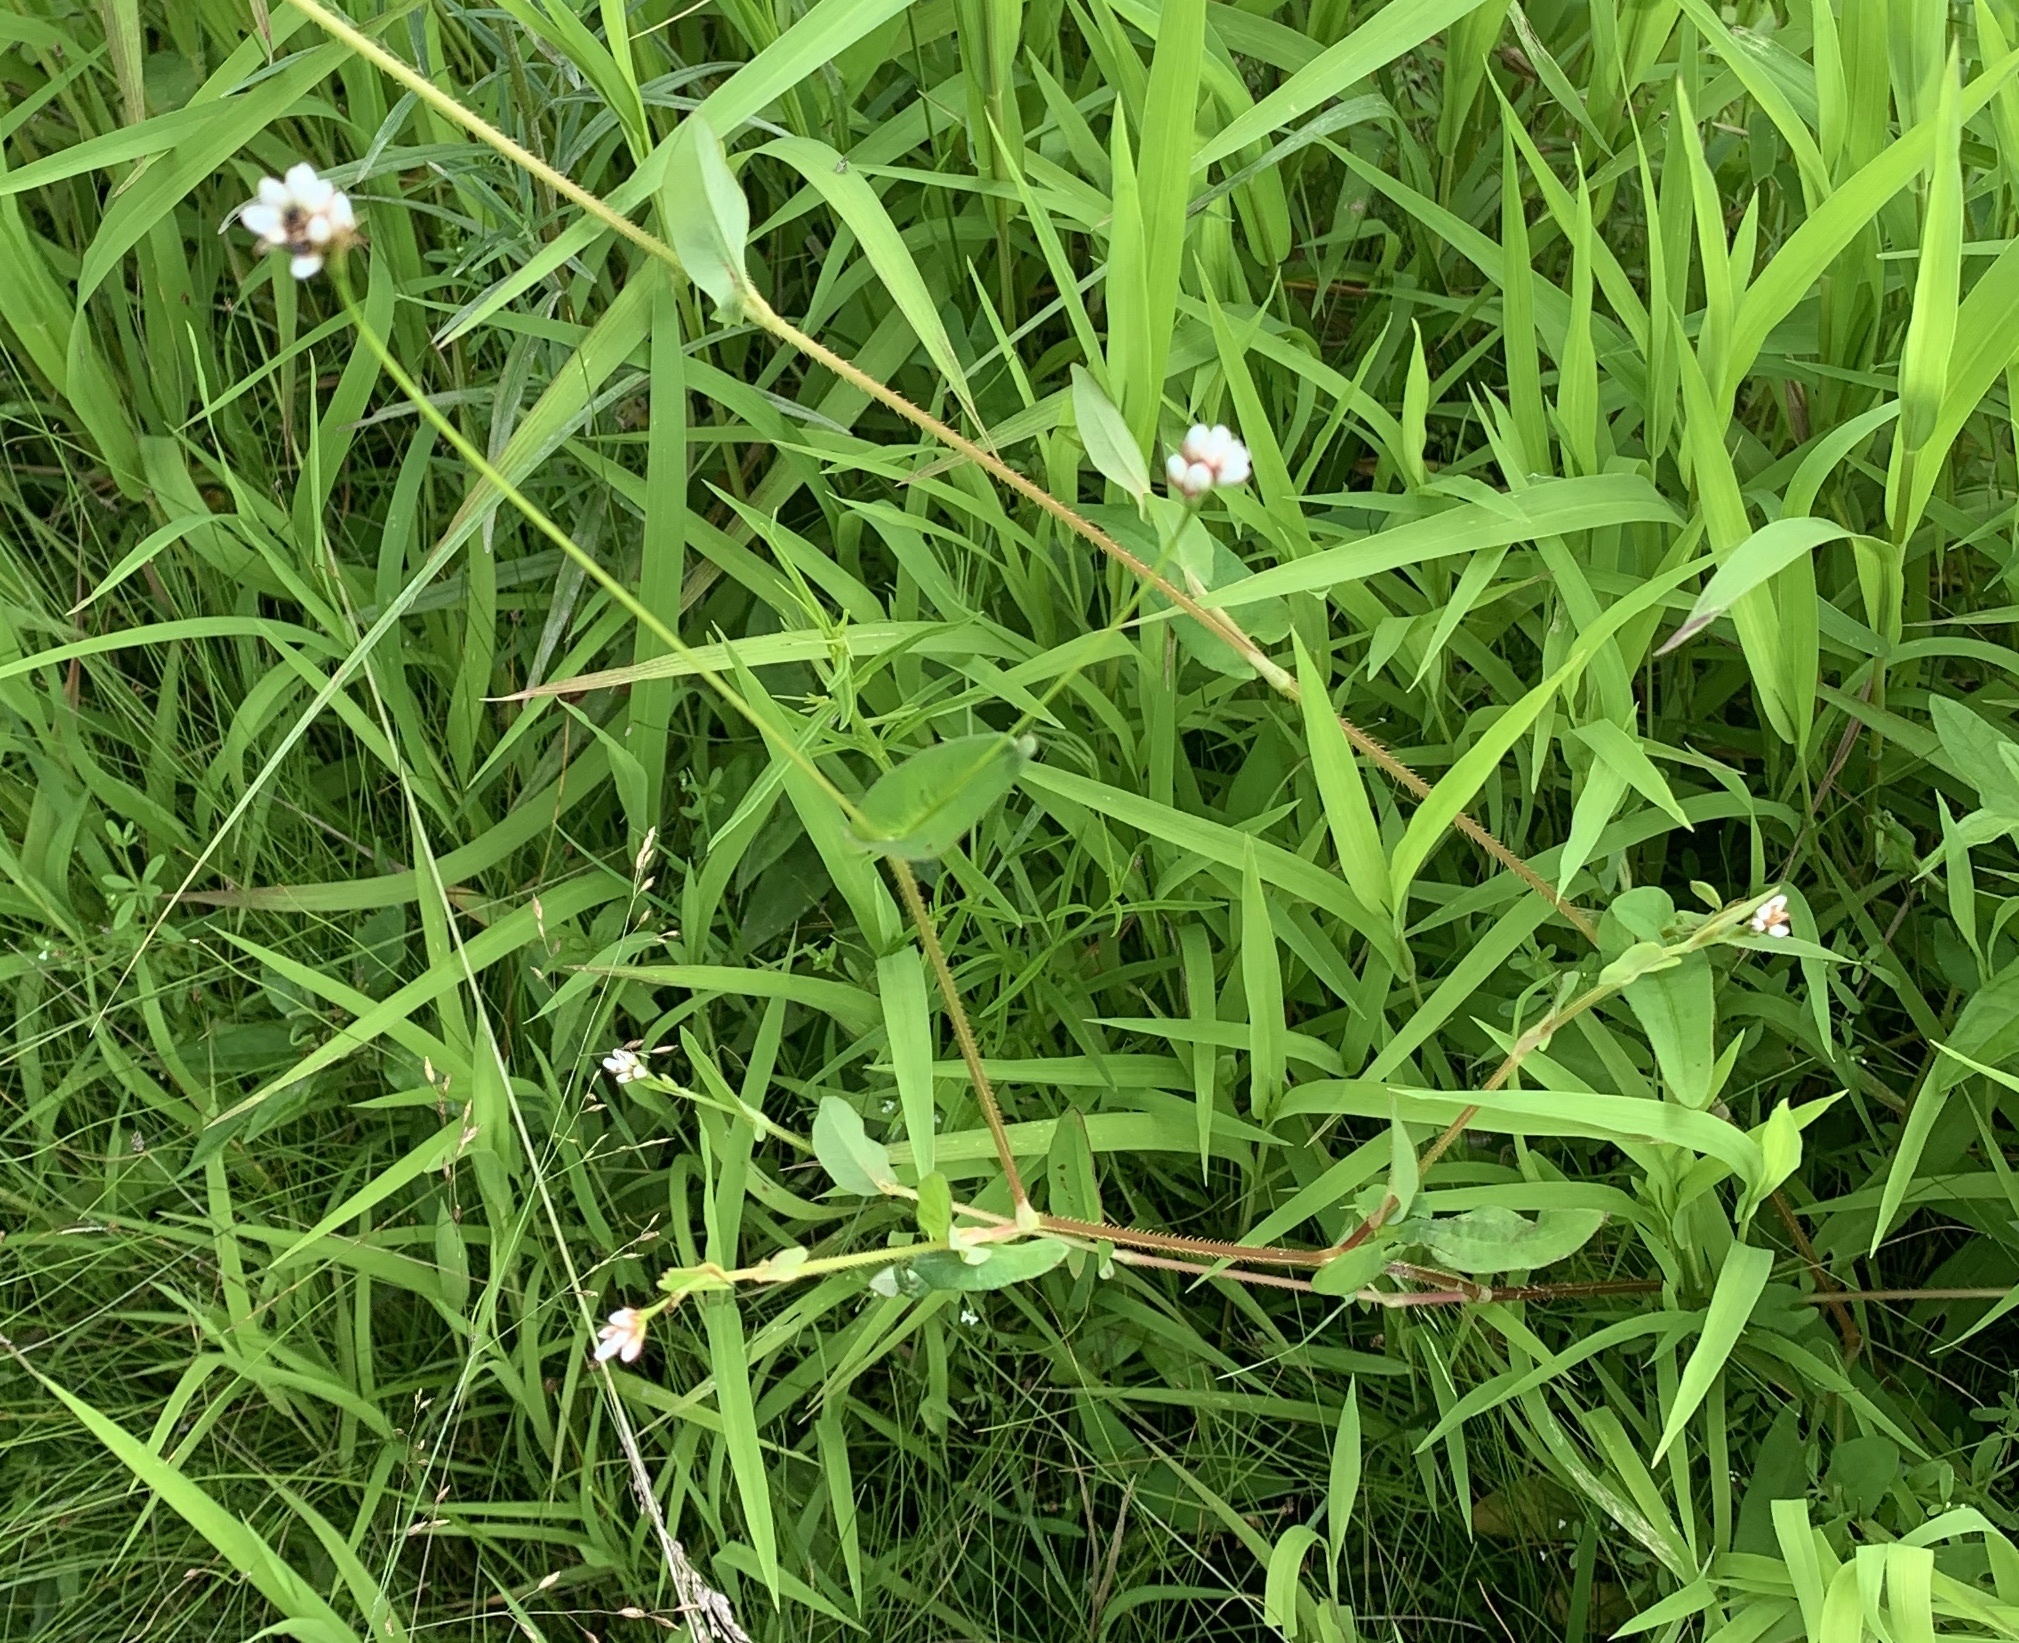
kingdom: Plantae
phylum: Tracheophyta
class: Magnoliopsida
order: Caryophyllales
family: Polygonaceae
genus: Persicaria
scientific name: Persicaria sagittata
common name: American tearthumb
